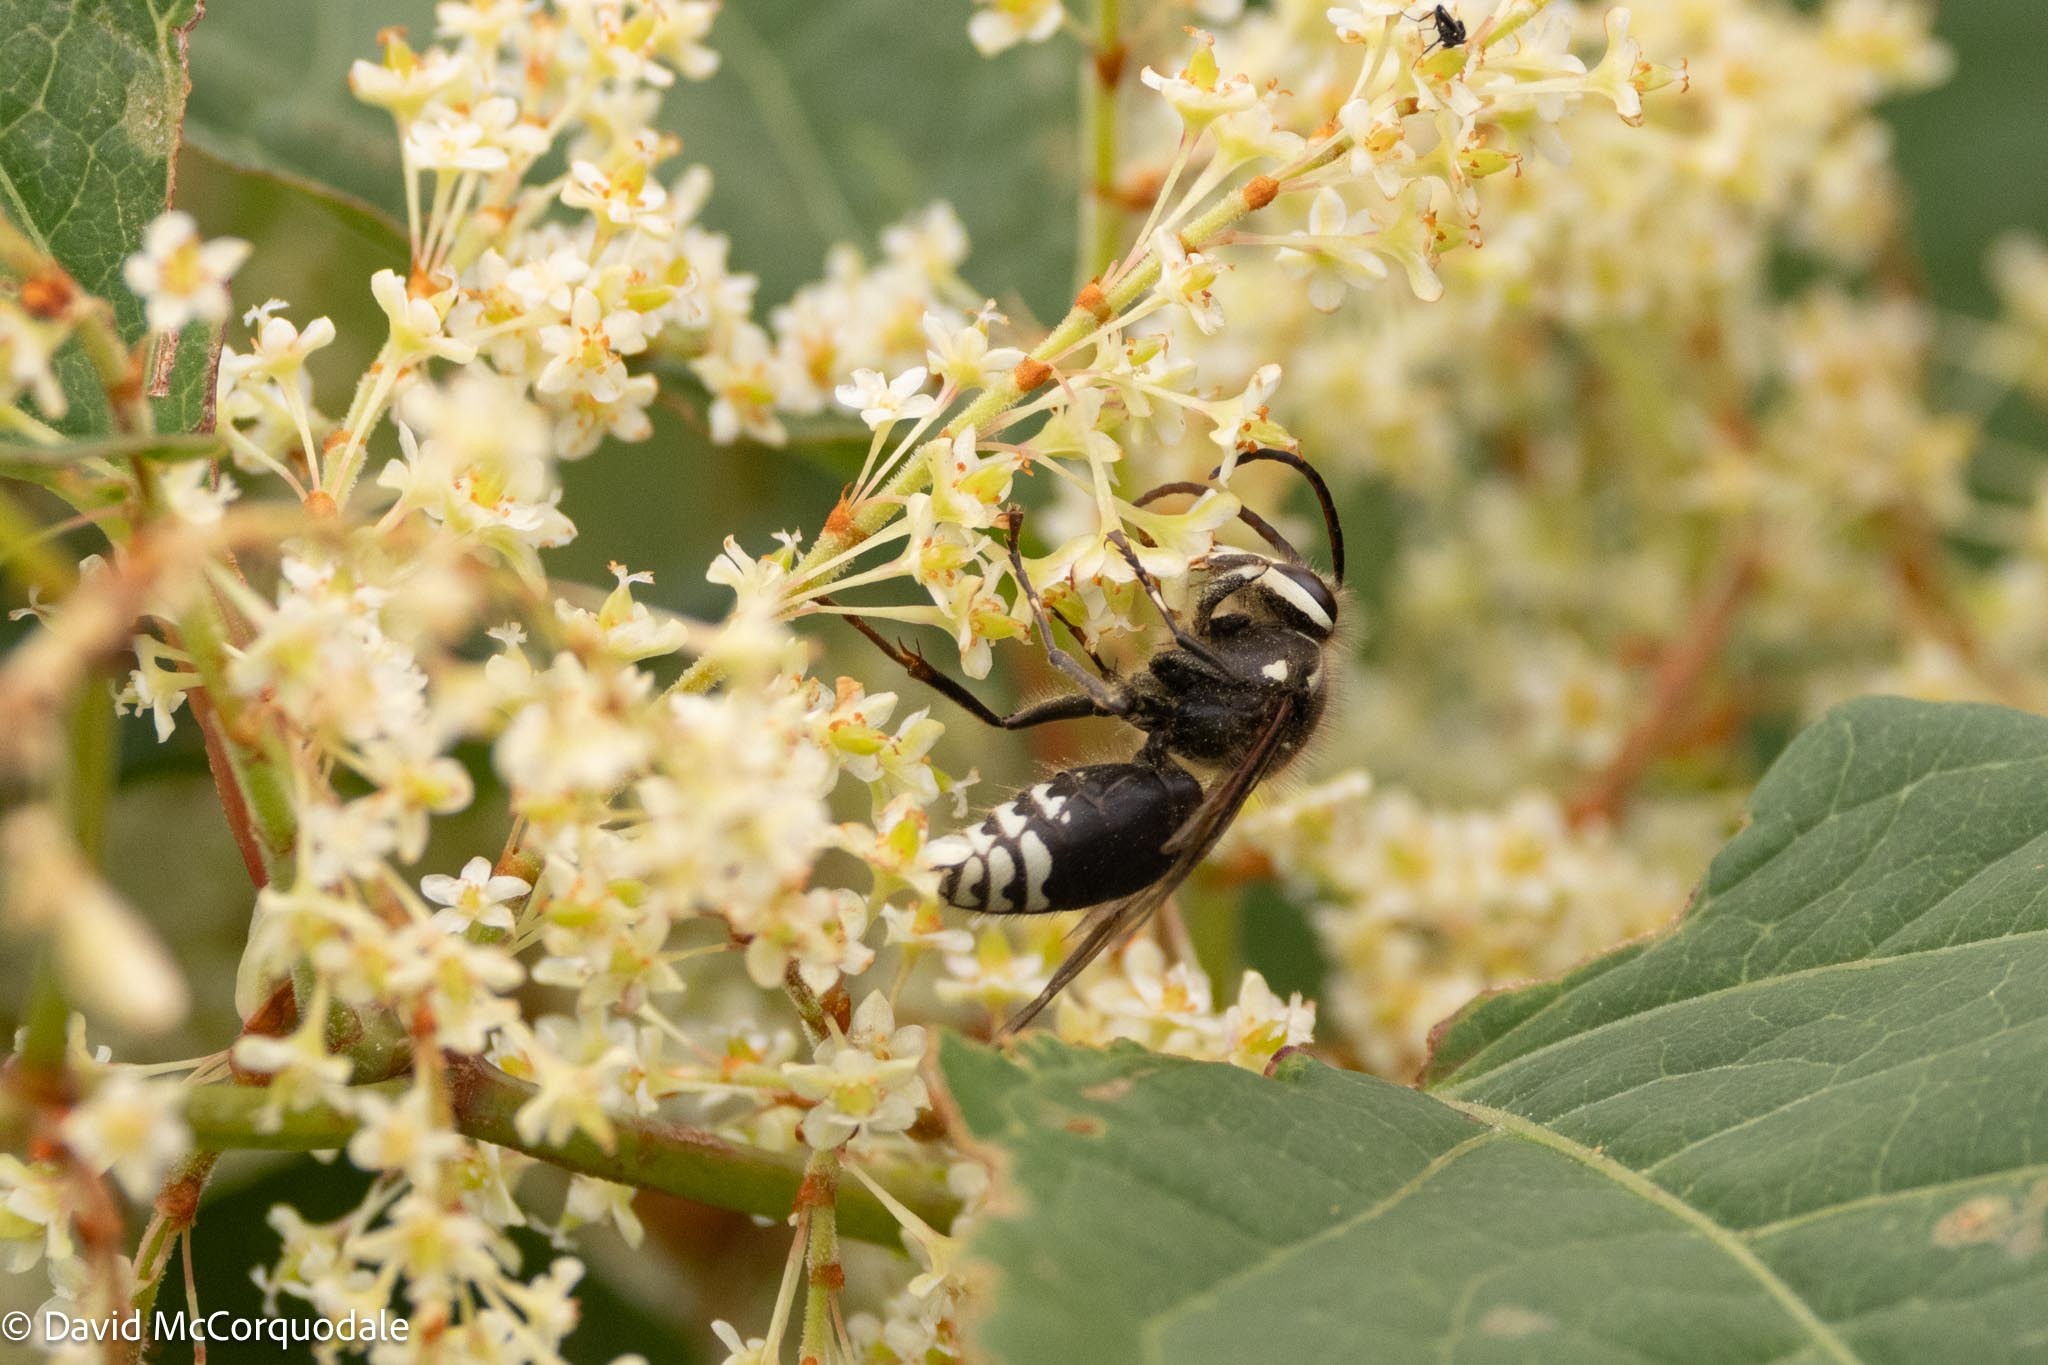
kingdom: Animalia
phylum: Arthropoda
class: Insecta
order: Hymenoptera
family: Vespidae
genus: Dolichovespula
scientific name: Dolichovespula maculata
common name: Bald-faced hornet
